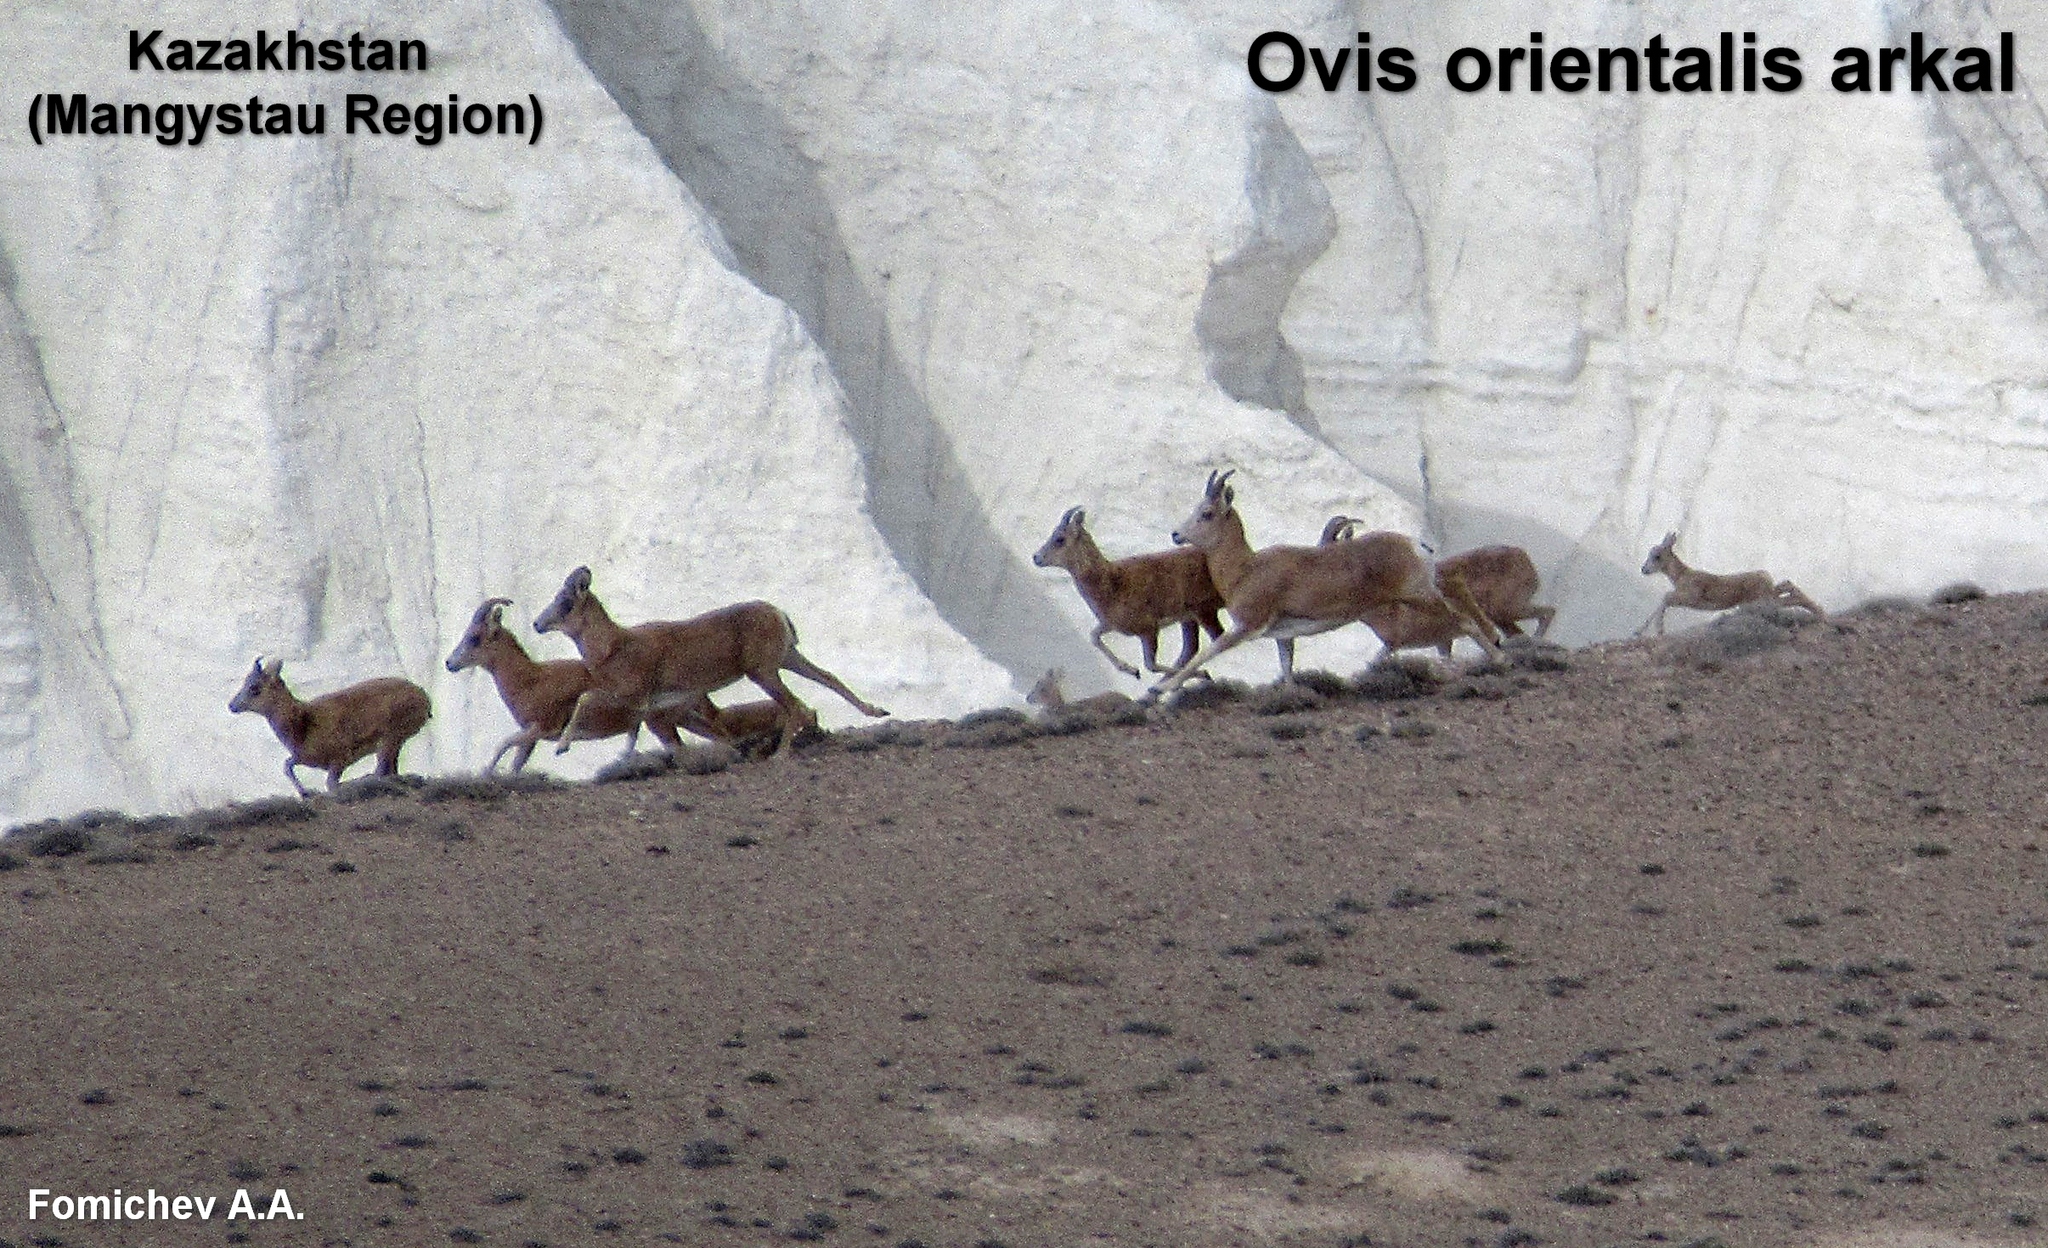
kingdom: Animalia
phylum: Chordata
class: Mammalia
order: Artiodactyla
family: Bovidae
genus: Ovis
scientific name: Ovis aries
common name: Domestic sheep
